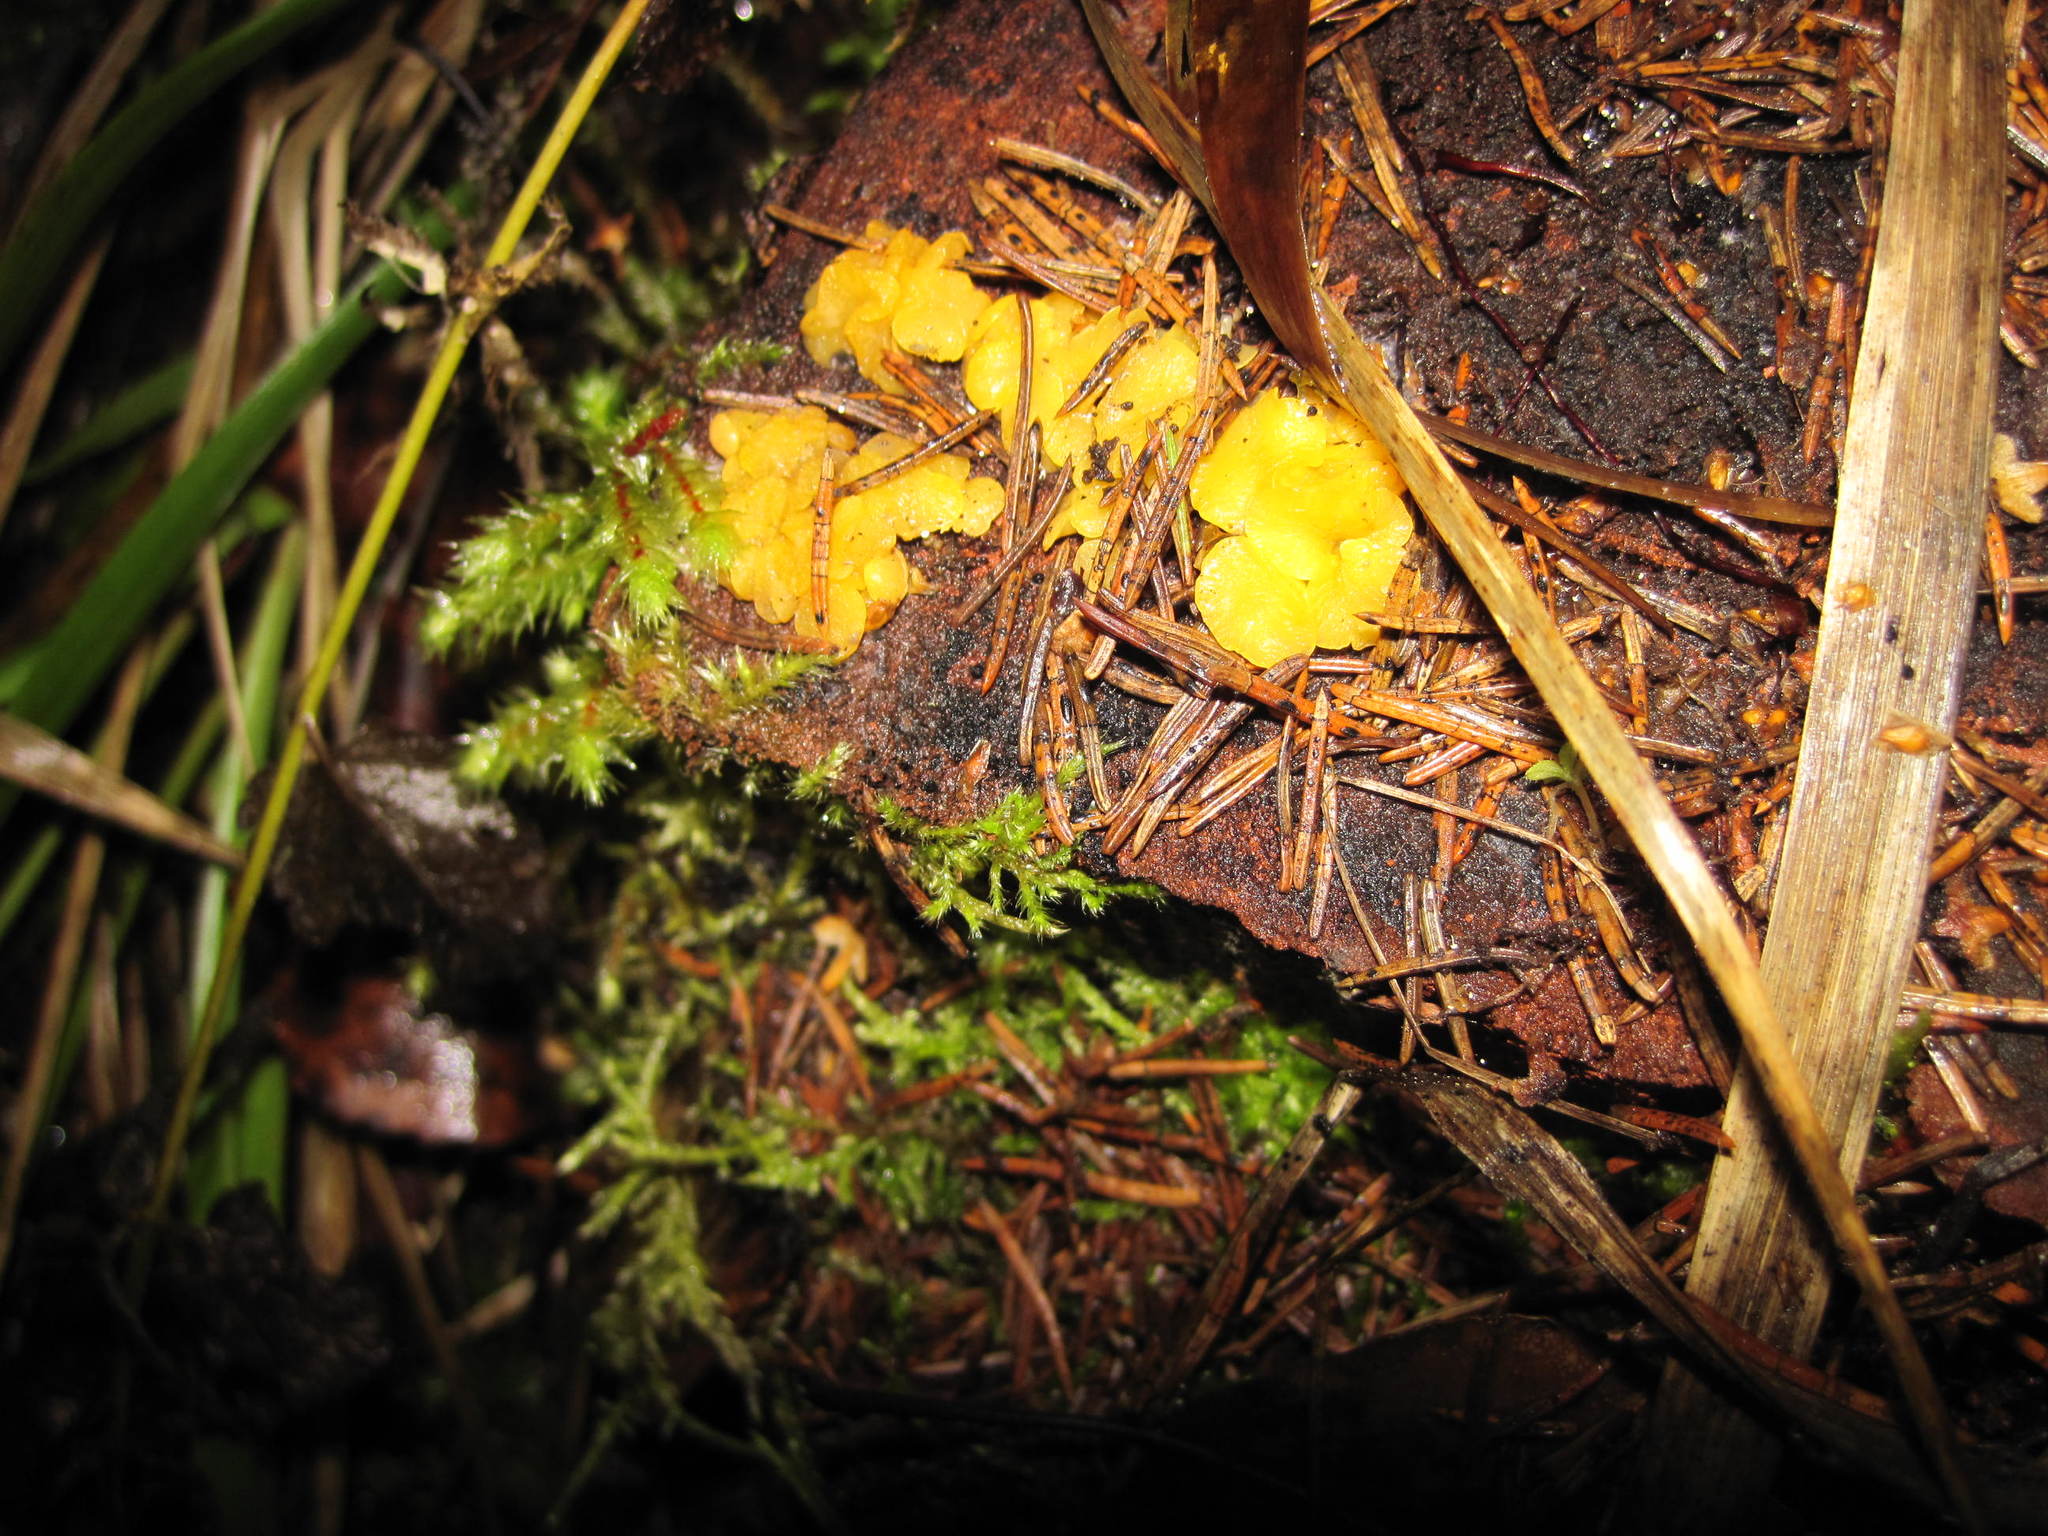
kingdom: Fungi
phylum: Ascomycota
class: Leotiomycetes
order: Helotiales
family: Pezizellaceae
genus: Calycina
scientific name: Calycina citrina
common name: Yellow fairy cups
